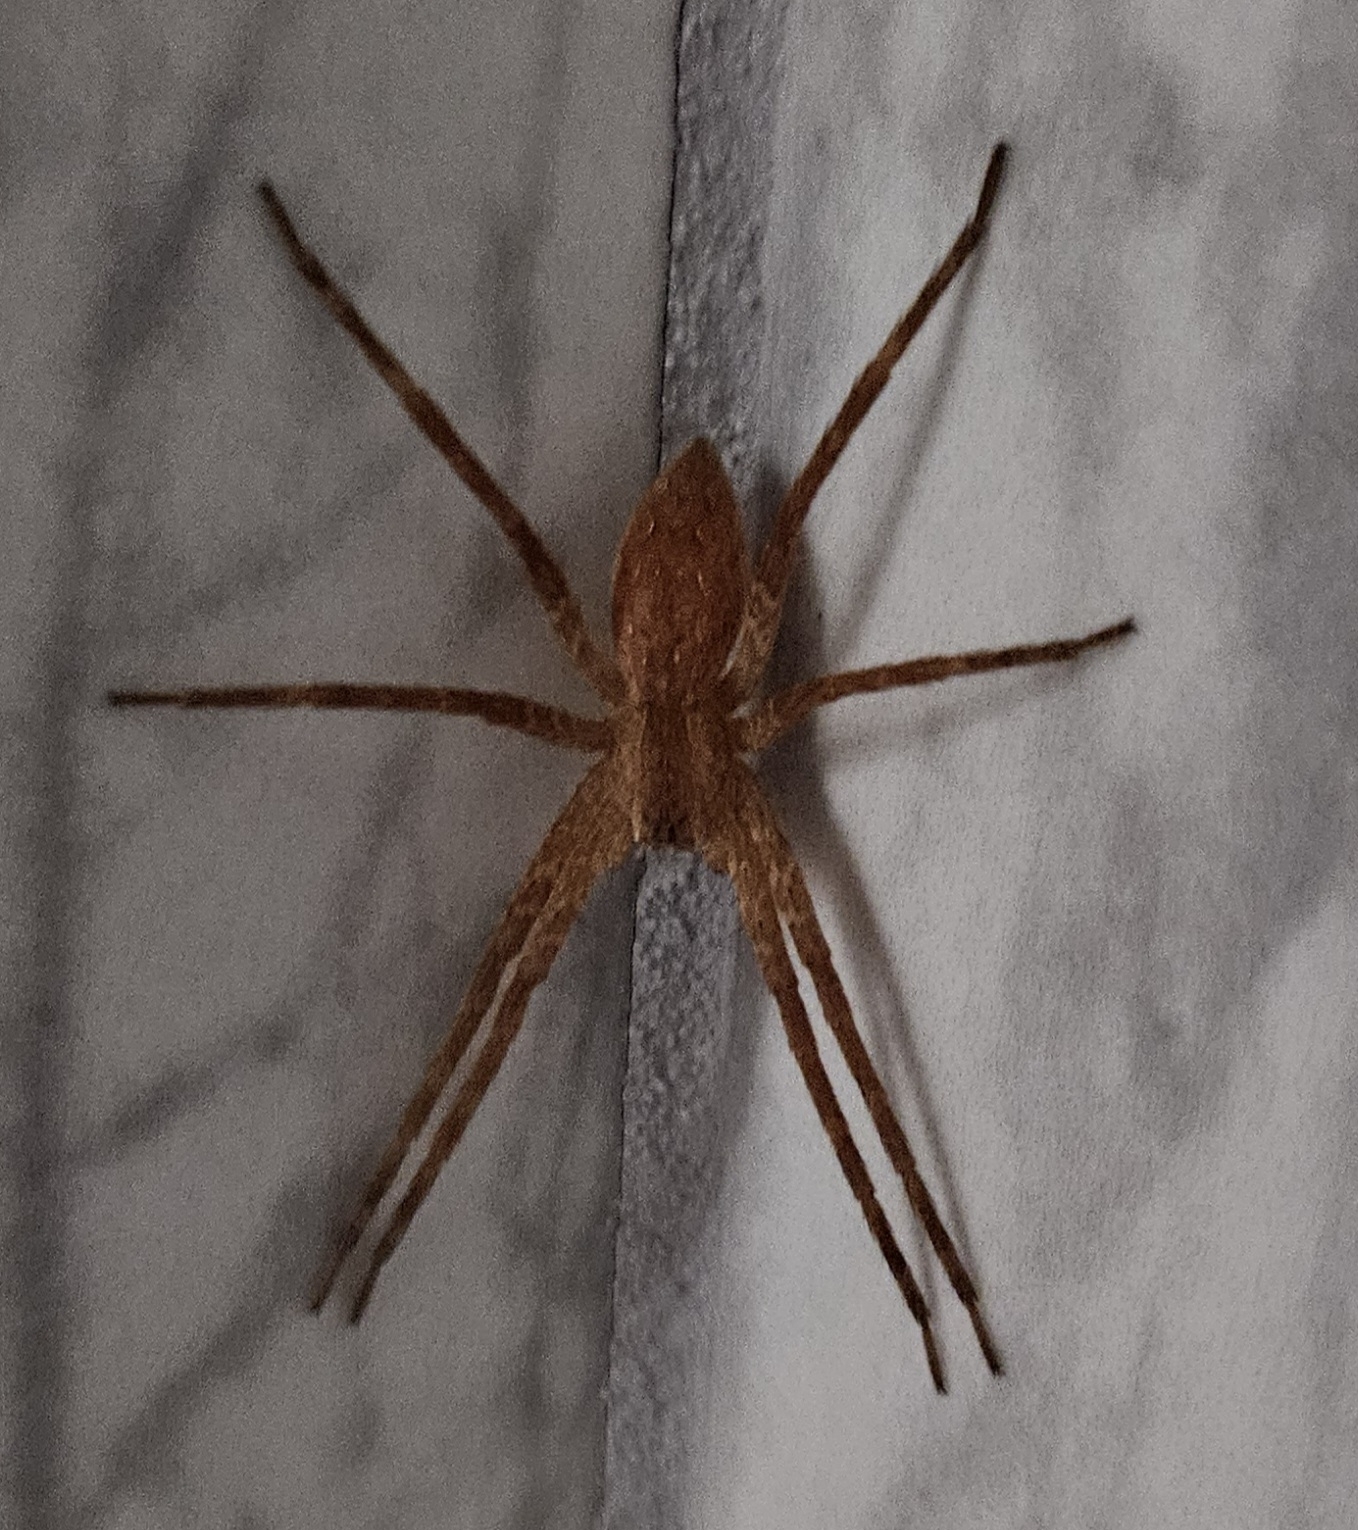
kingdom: Animalia
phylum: Arthropoda
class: Arachnida
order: Araneae
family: Pisauridae
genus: Pisaurina
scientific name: Pisaurina mira
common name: American nursery web spider
